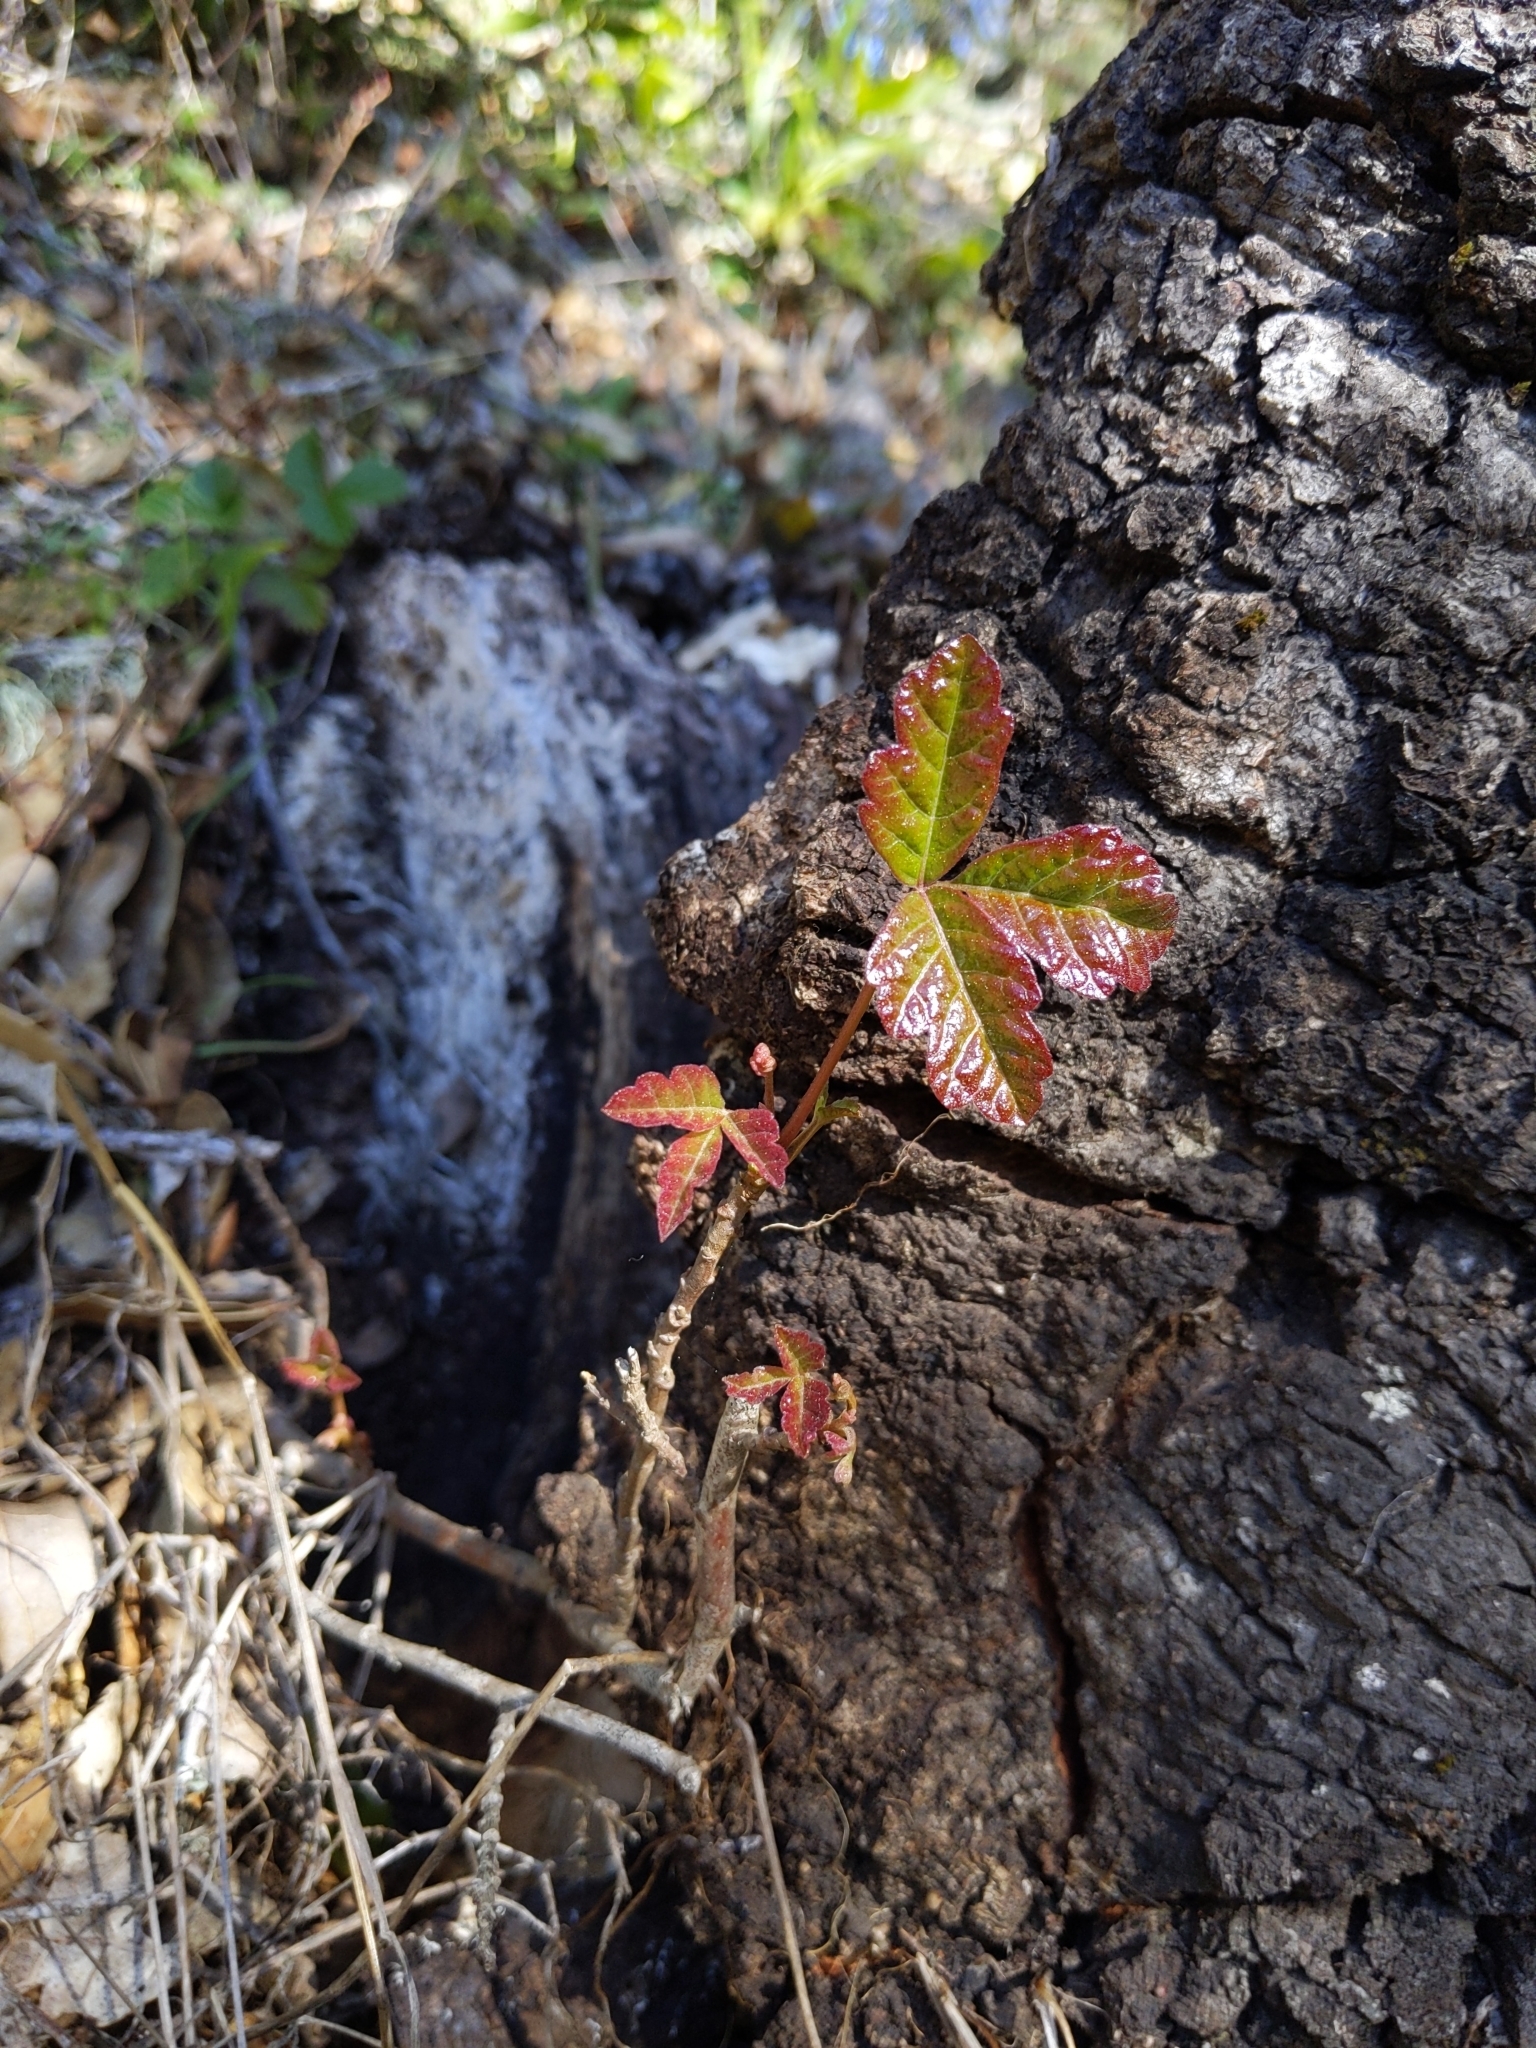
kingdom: Plantae
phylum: Tracheophyta
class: Magnoliopsida
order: Sapindales
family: Anacardiaceae
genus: Toxicodendron
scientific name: Toxicodendron diversilobum
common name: Pacific poison-oak
